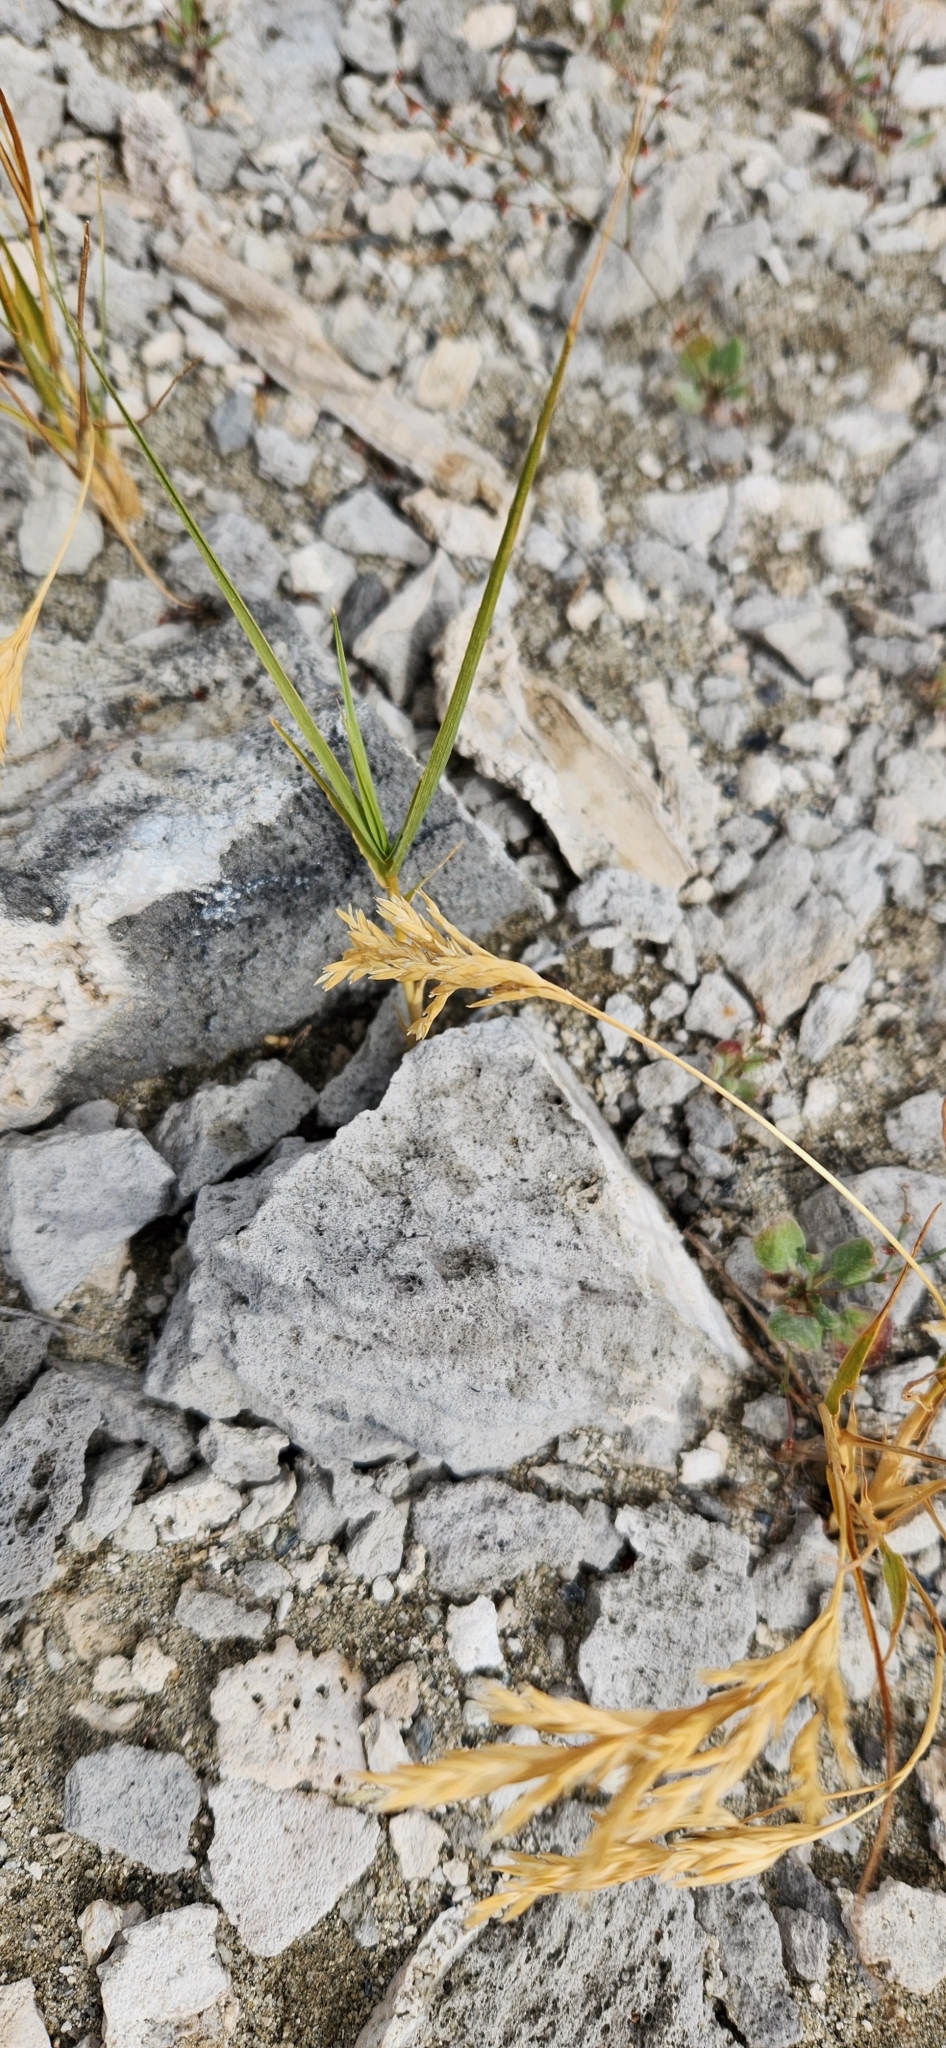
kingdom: Plantae
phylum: Tracheophyta
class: Liliopsida
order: Poales
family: Poaceae
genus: Distichlis
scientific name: Distichlis spicata
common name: Saltgrass
